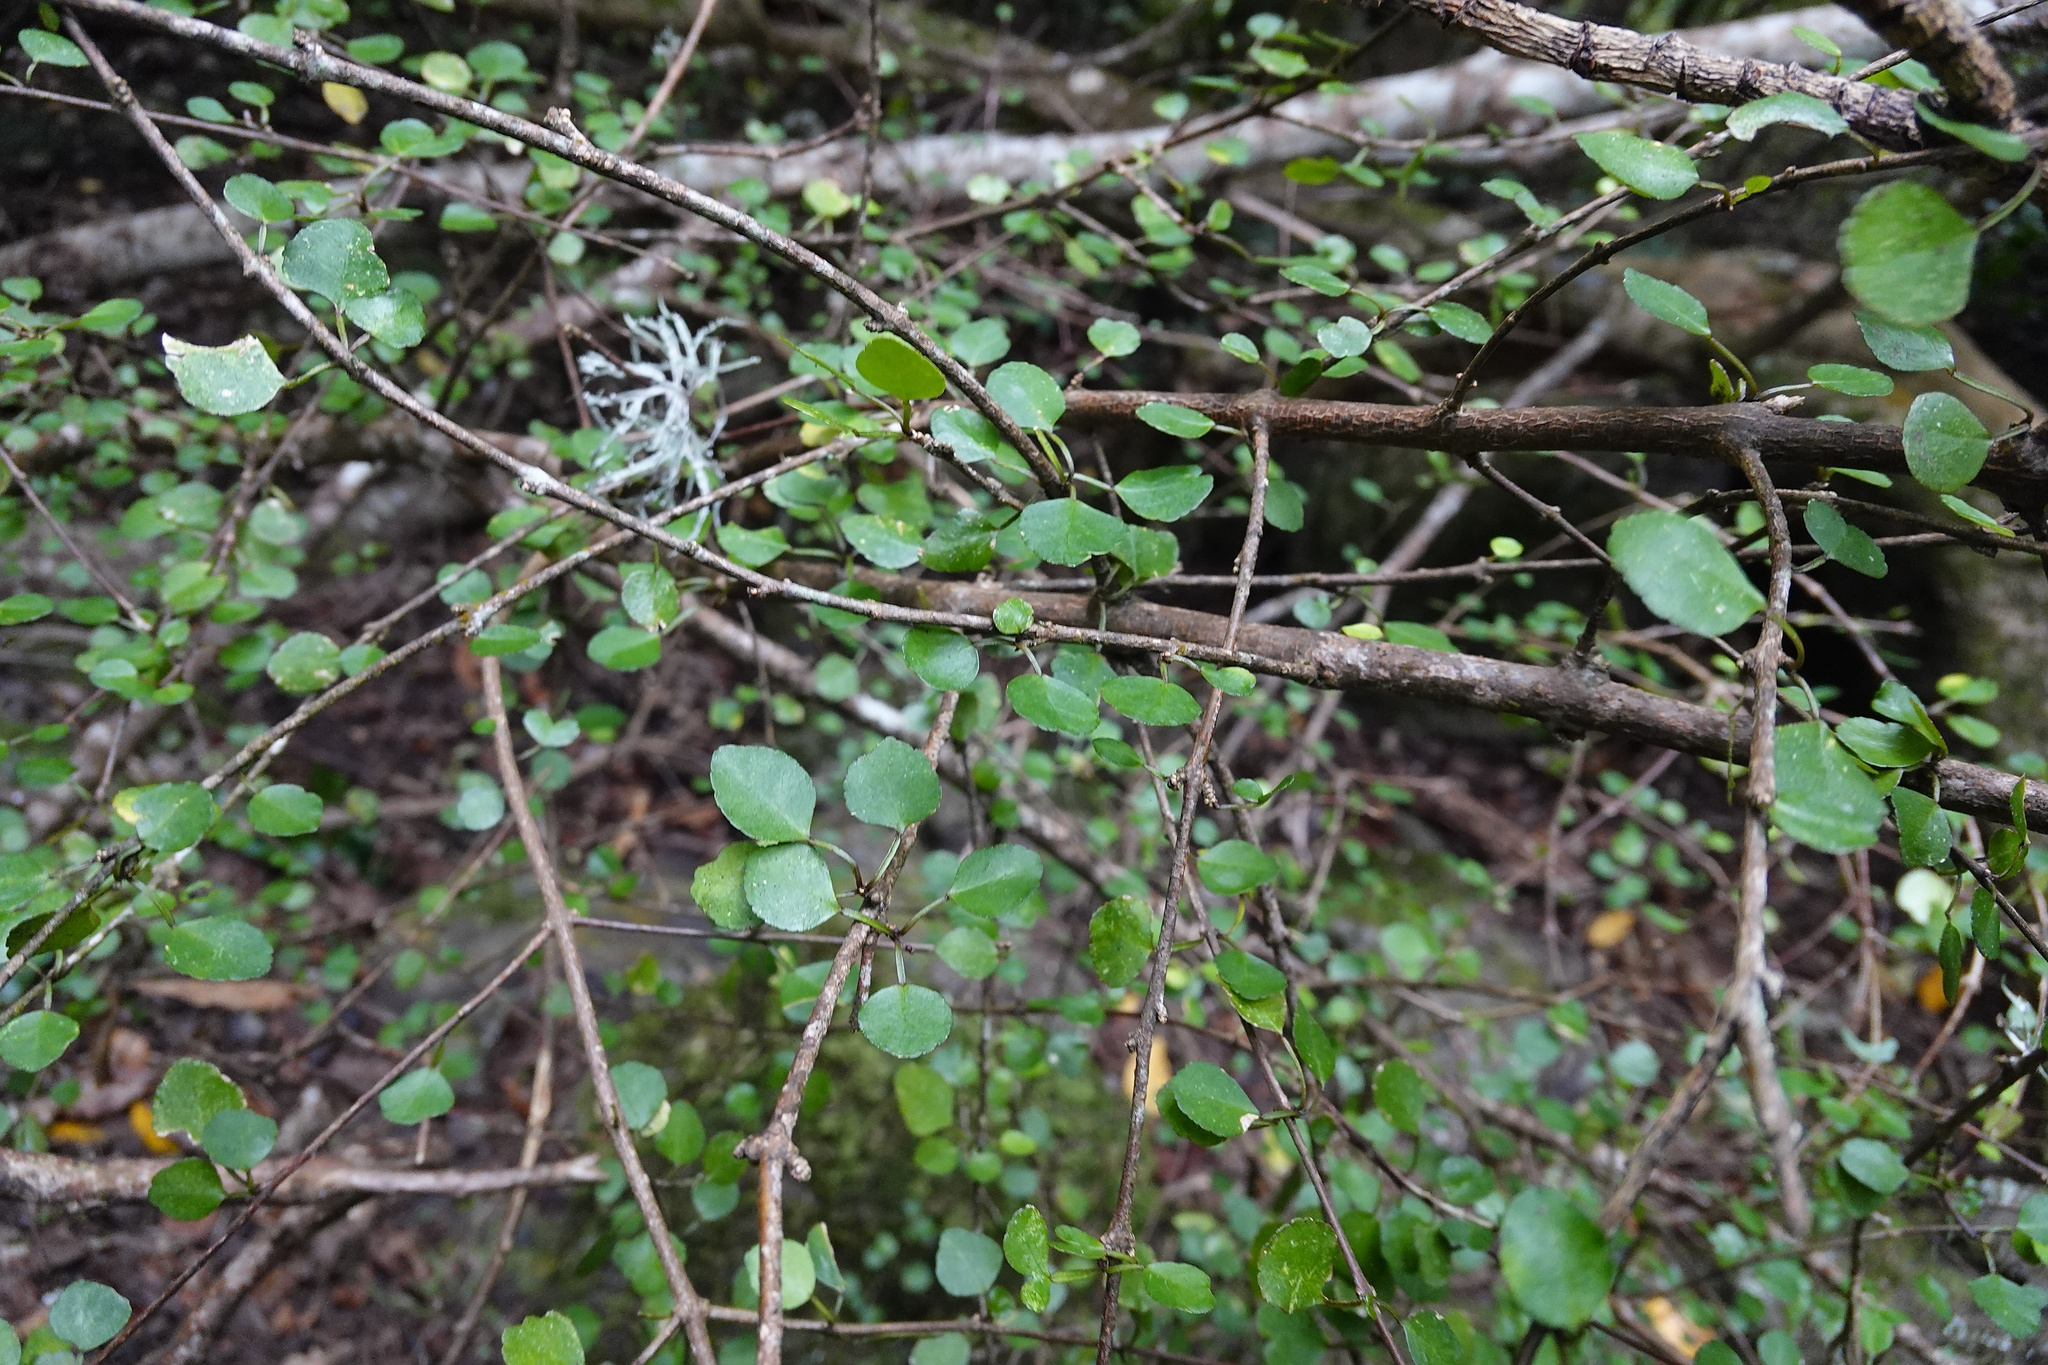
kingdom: Plantae
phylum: Tracheophyta
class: Magnoliopsida
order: Sapindales
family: Rutaceae
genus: Melicope
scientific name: Melicope simplex
